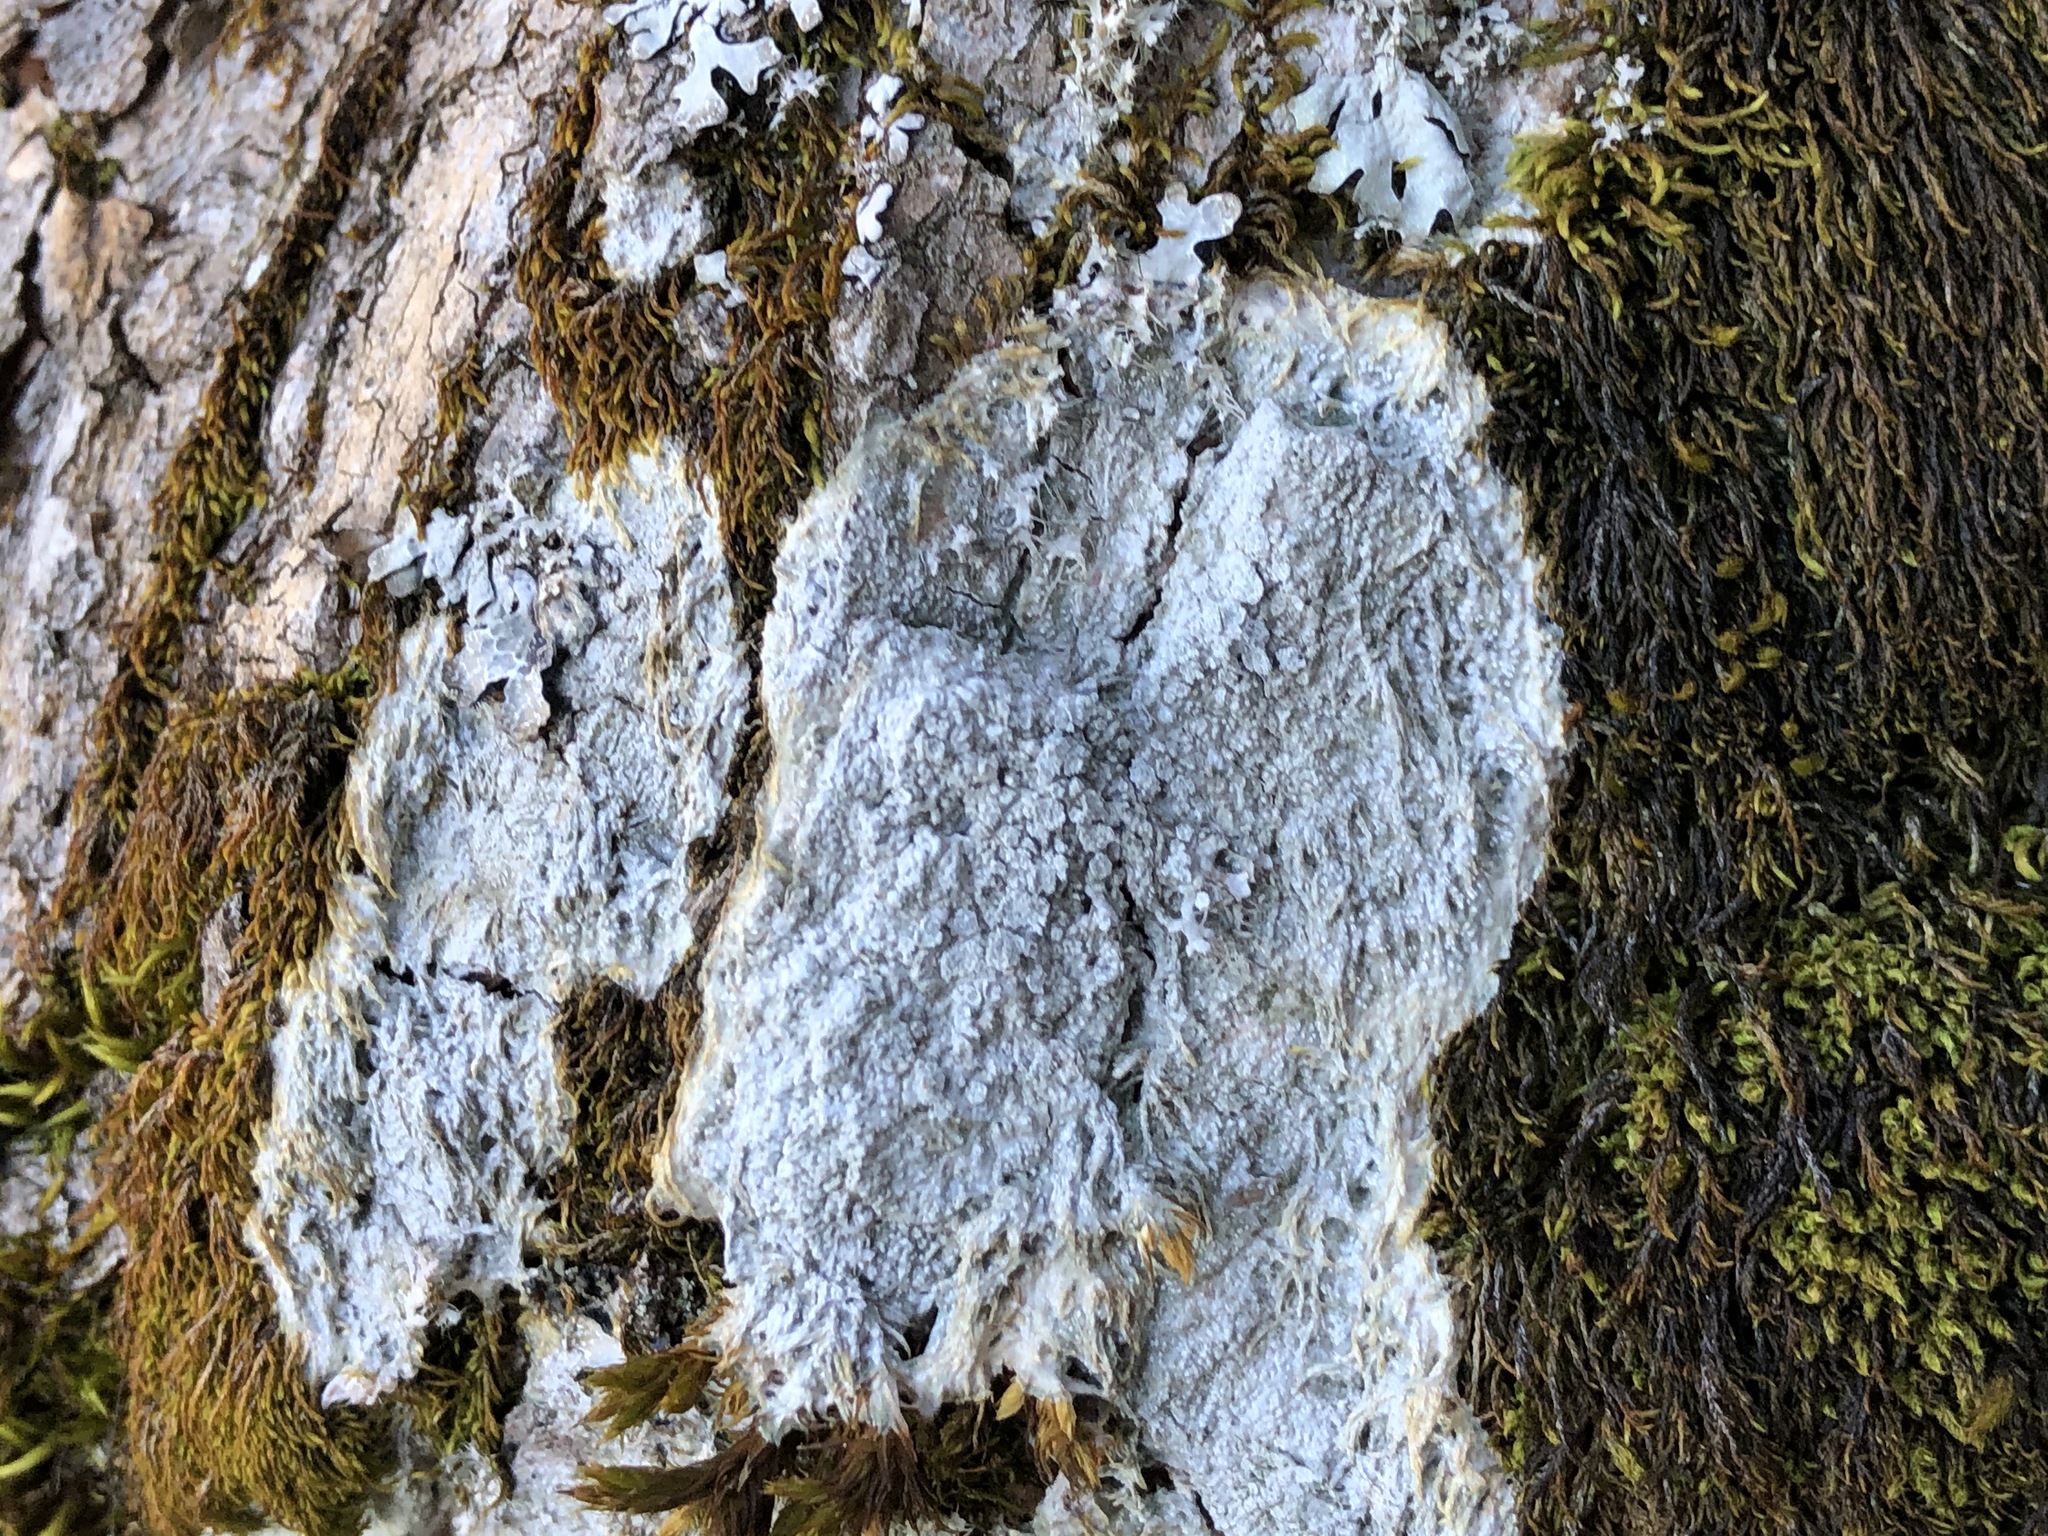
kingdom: Fungi
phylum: Ascomycota
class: Lecanoromycetes
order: Ostropales
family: Phlyctidaceae
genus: Phlyctis
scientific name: Phlyctis argena
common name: Whitewash lichen
